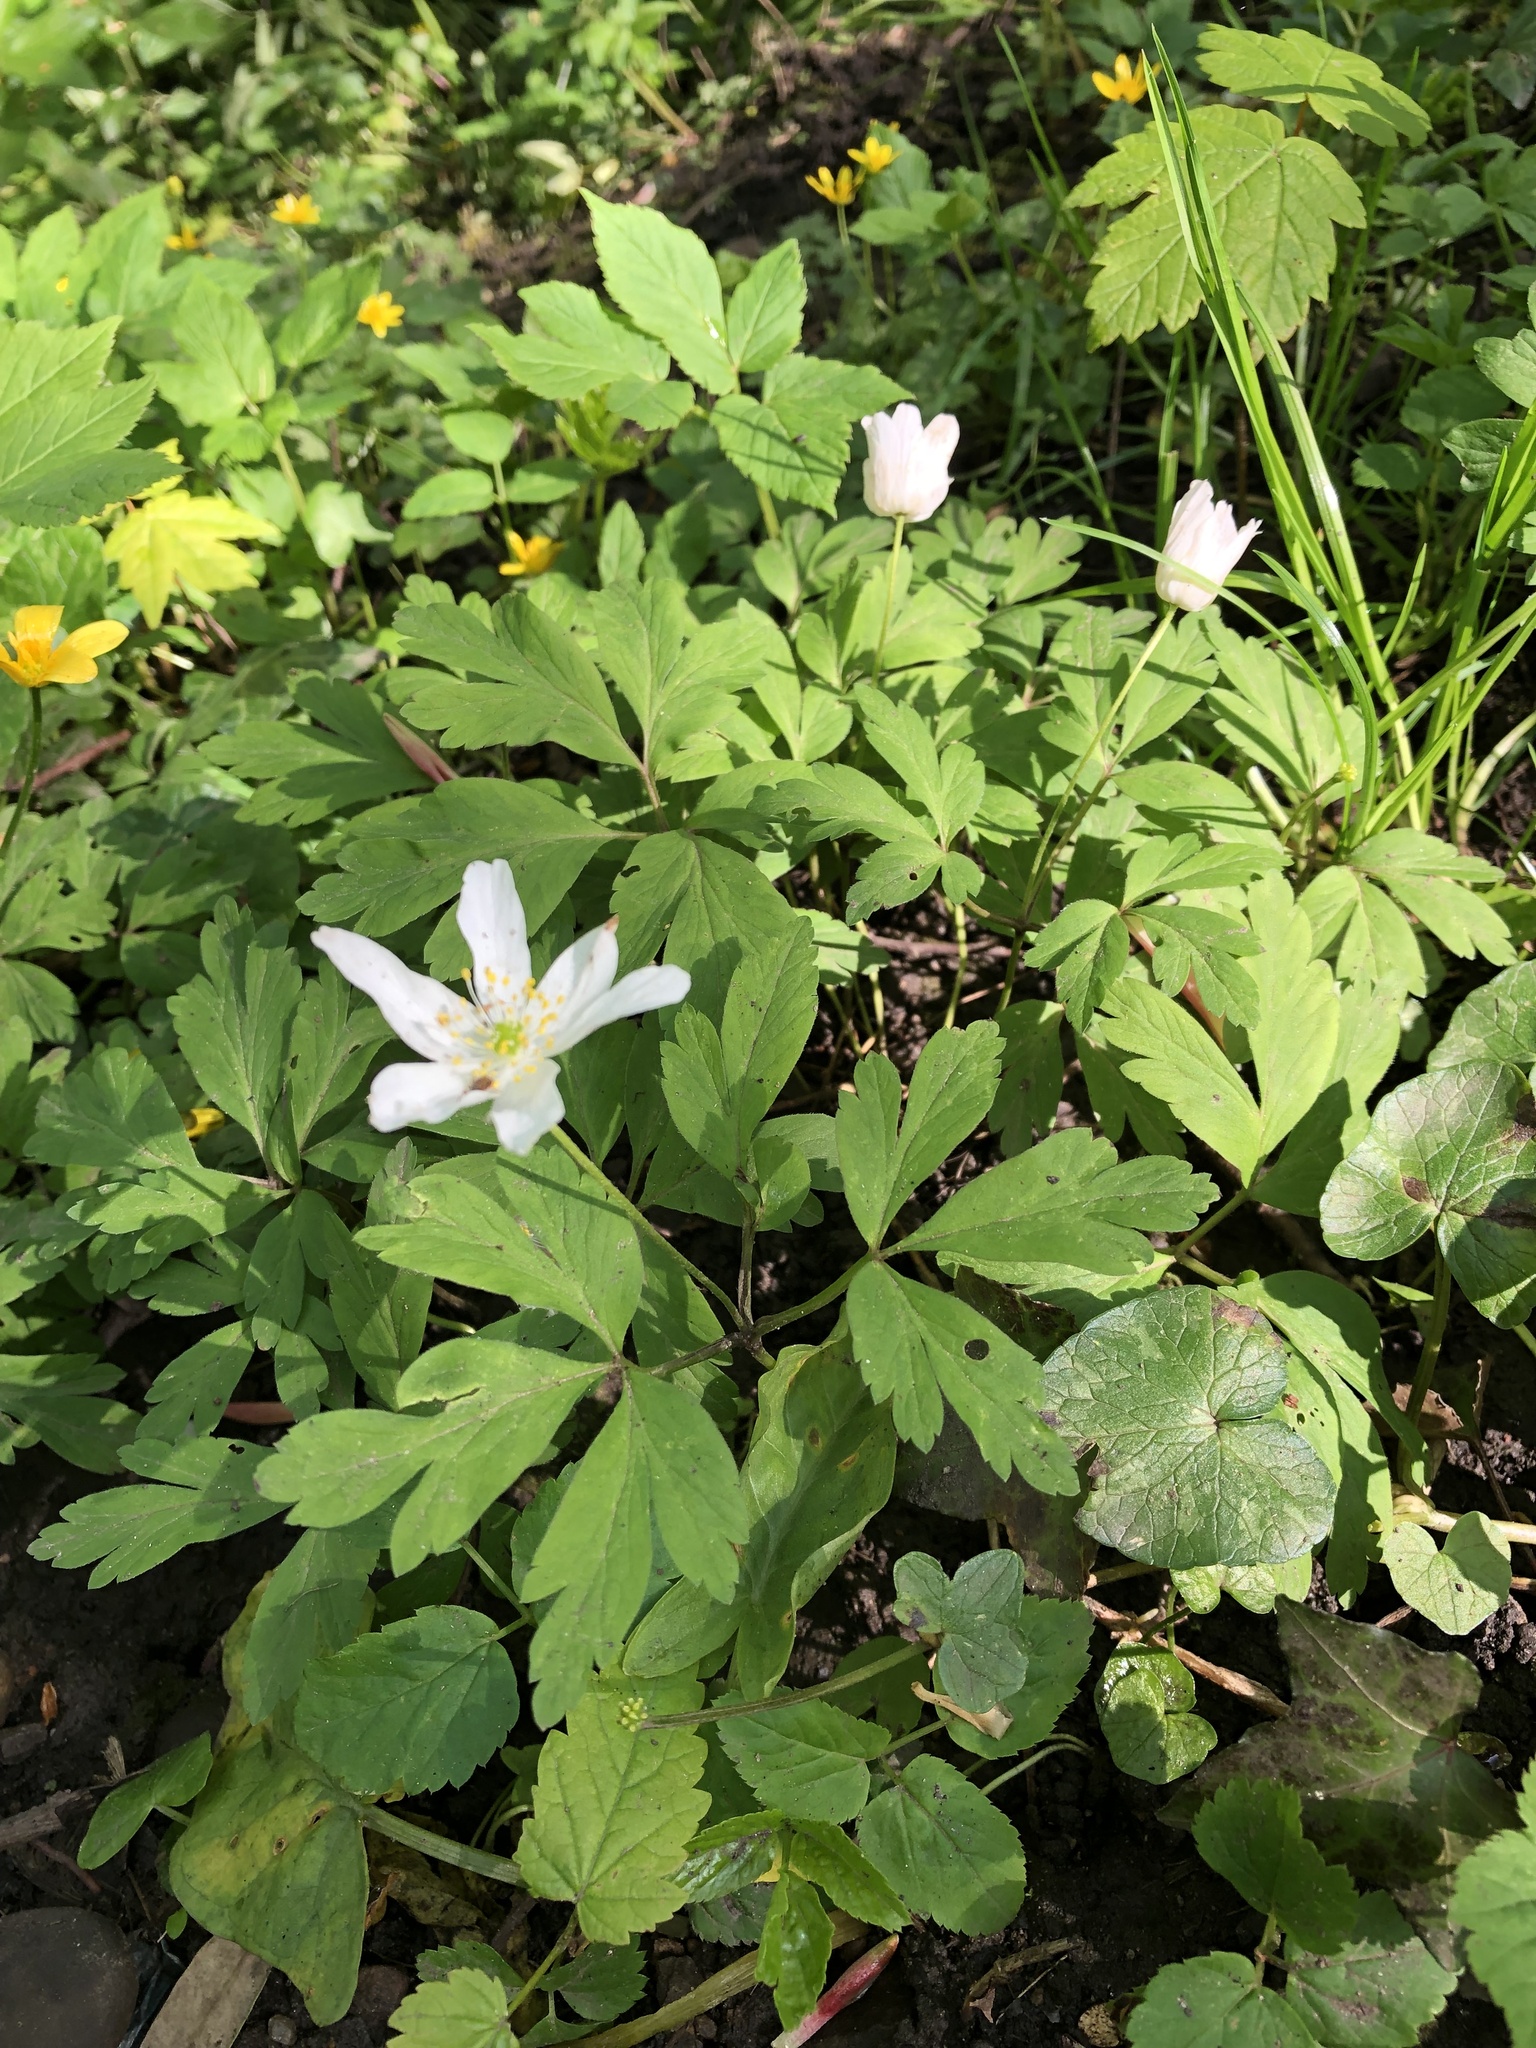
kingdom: Plantae
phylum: Tracheophyta
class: Magnoliopsida
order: Ranunculales
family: Ranunculaceae
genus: Anemone
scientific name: Anemone nemorosa
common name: Wood anemone
